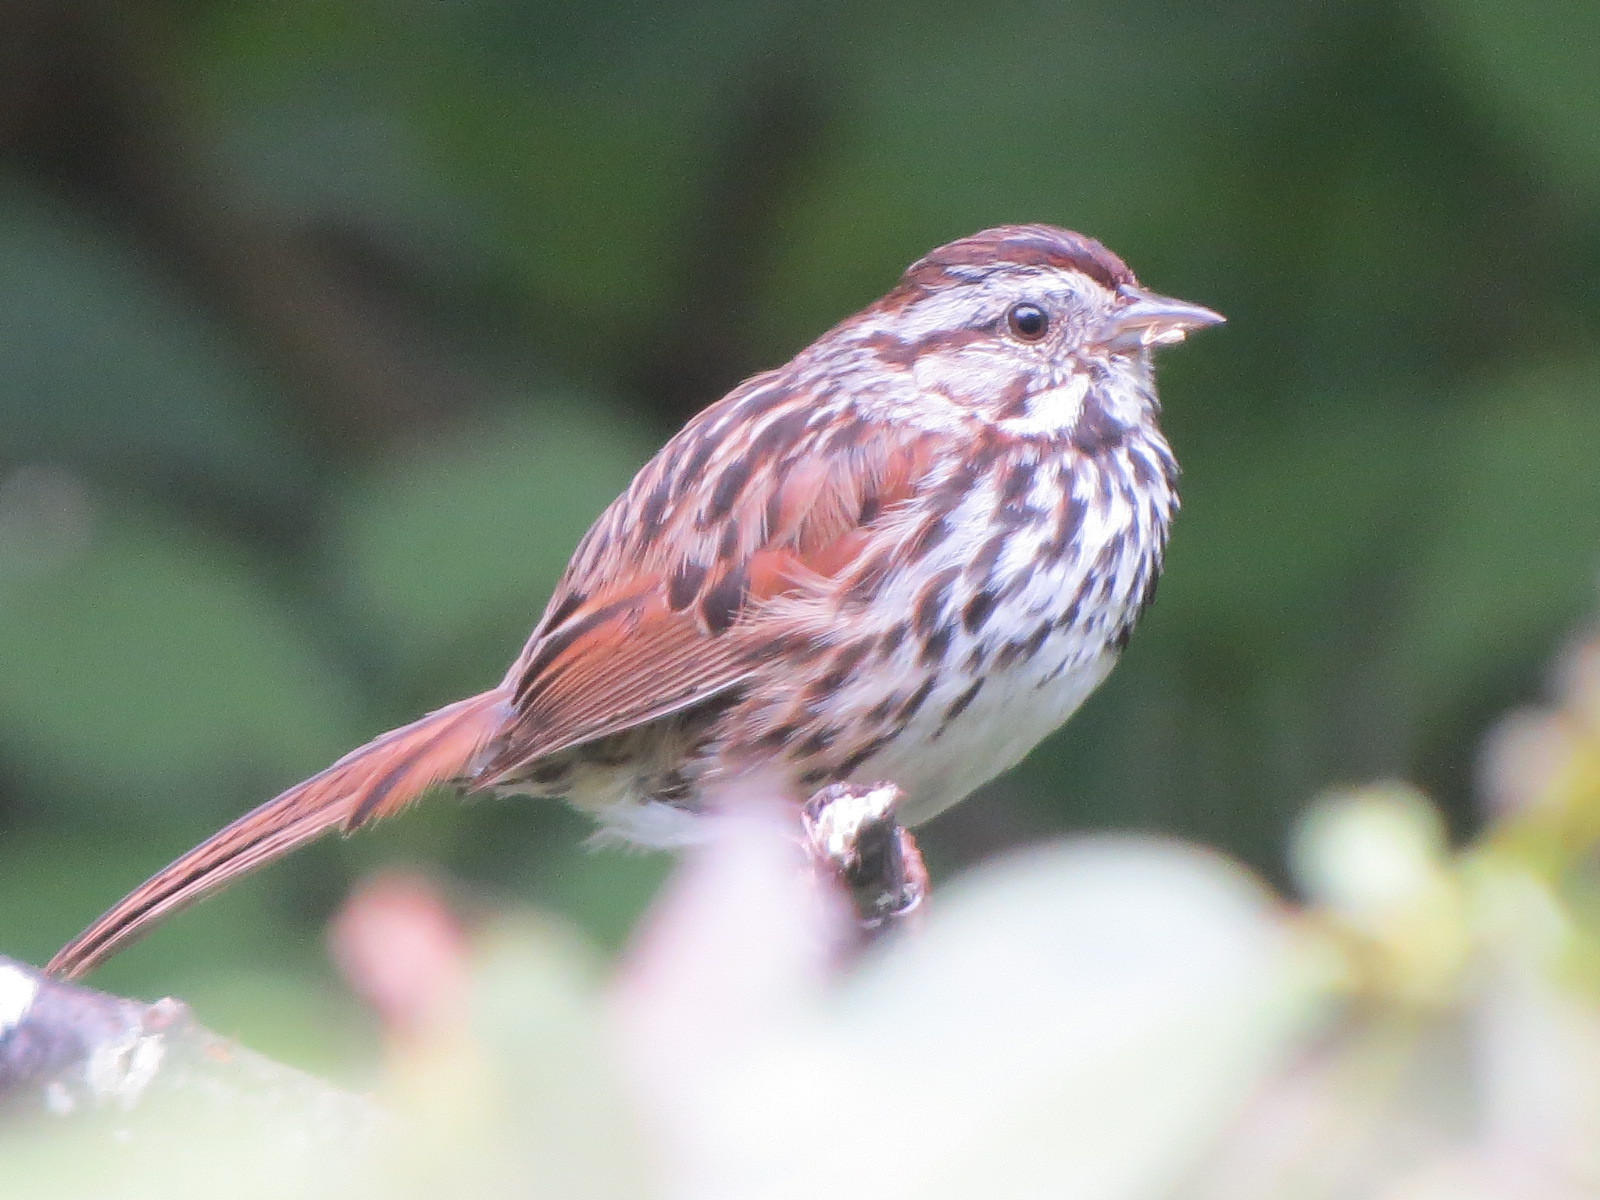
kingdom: Animalia
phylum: Chordata
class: Aves
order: Passeriformes
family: Passerellidae
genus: Melospiza
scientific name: Melospiza melodia
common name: Song sparrow
